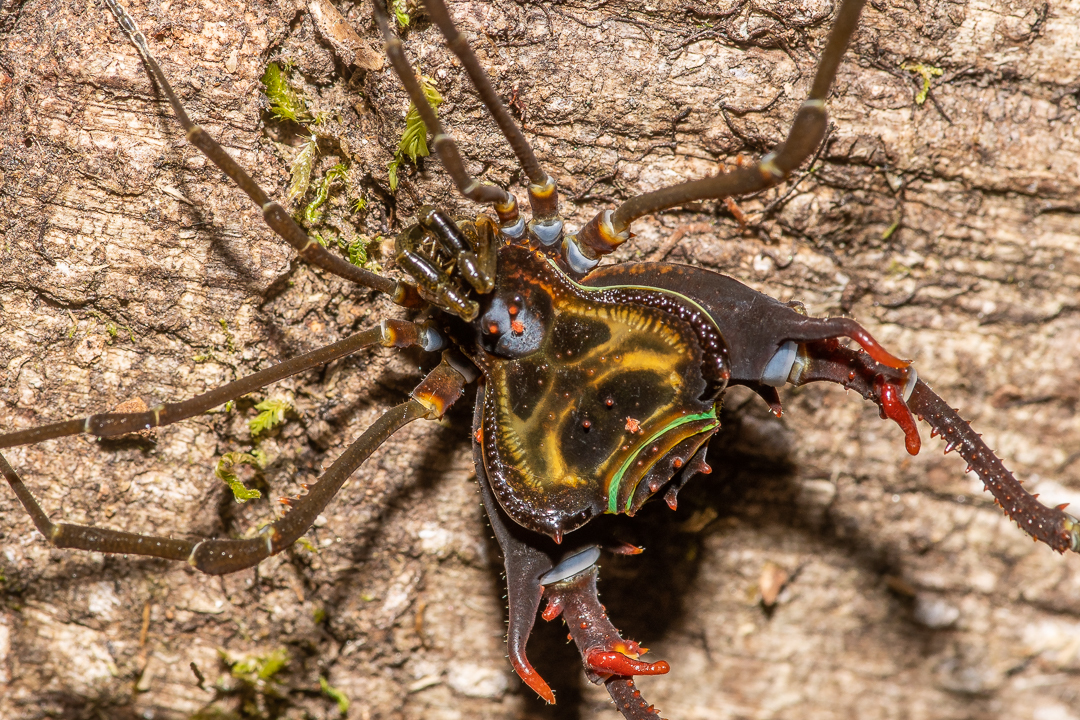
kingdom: Animalia
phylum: Arthropoda
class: Arachnida
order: Opiliones
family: Gonyleptidae
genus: Sadocus
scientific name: Sadocus polyacanthus
